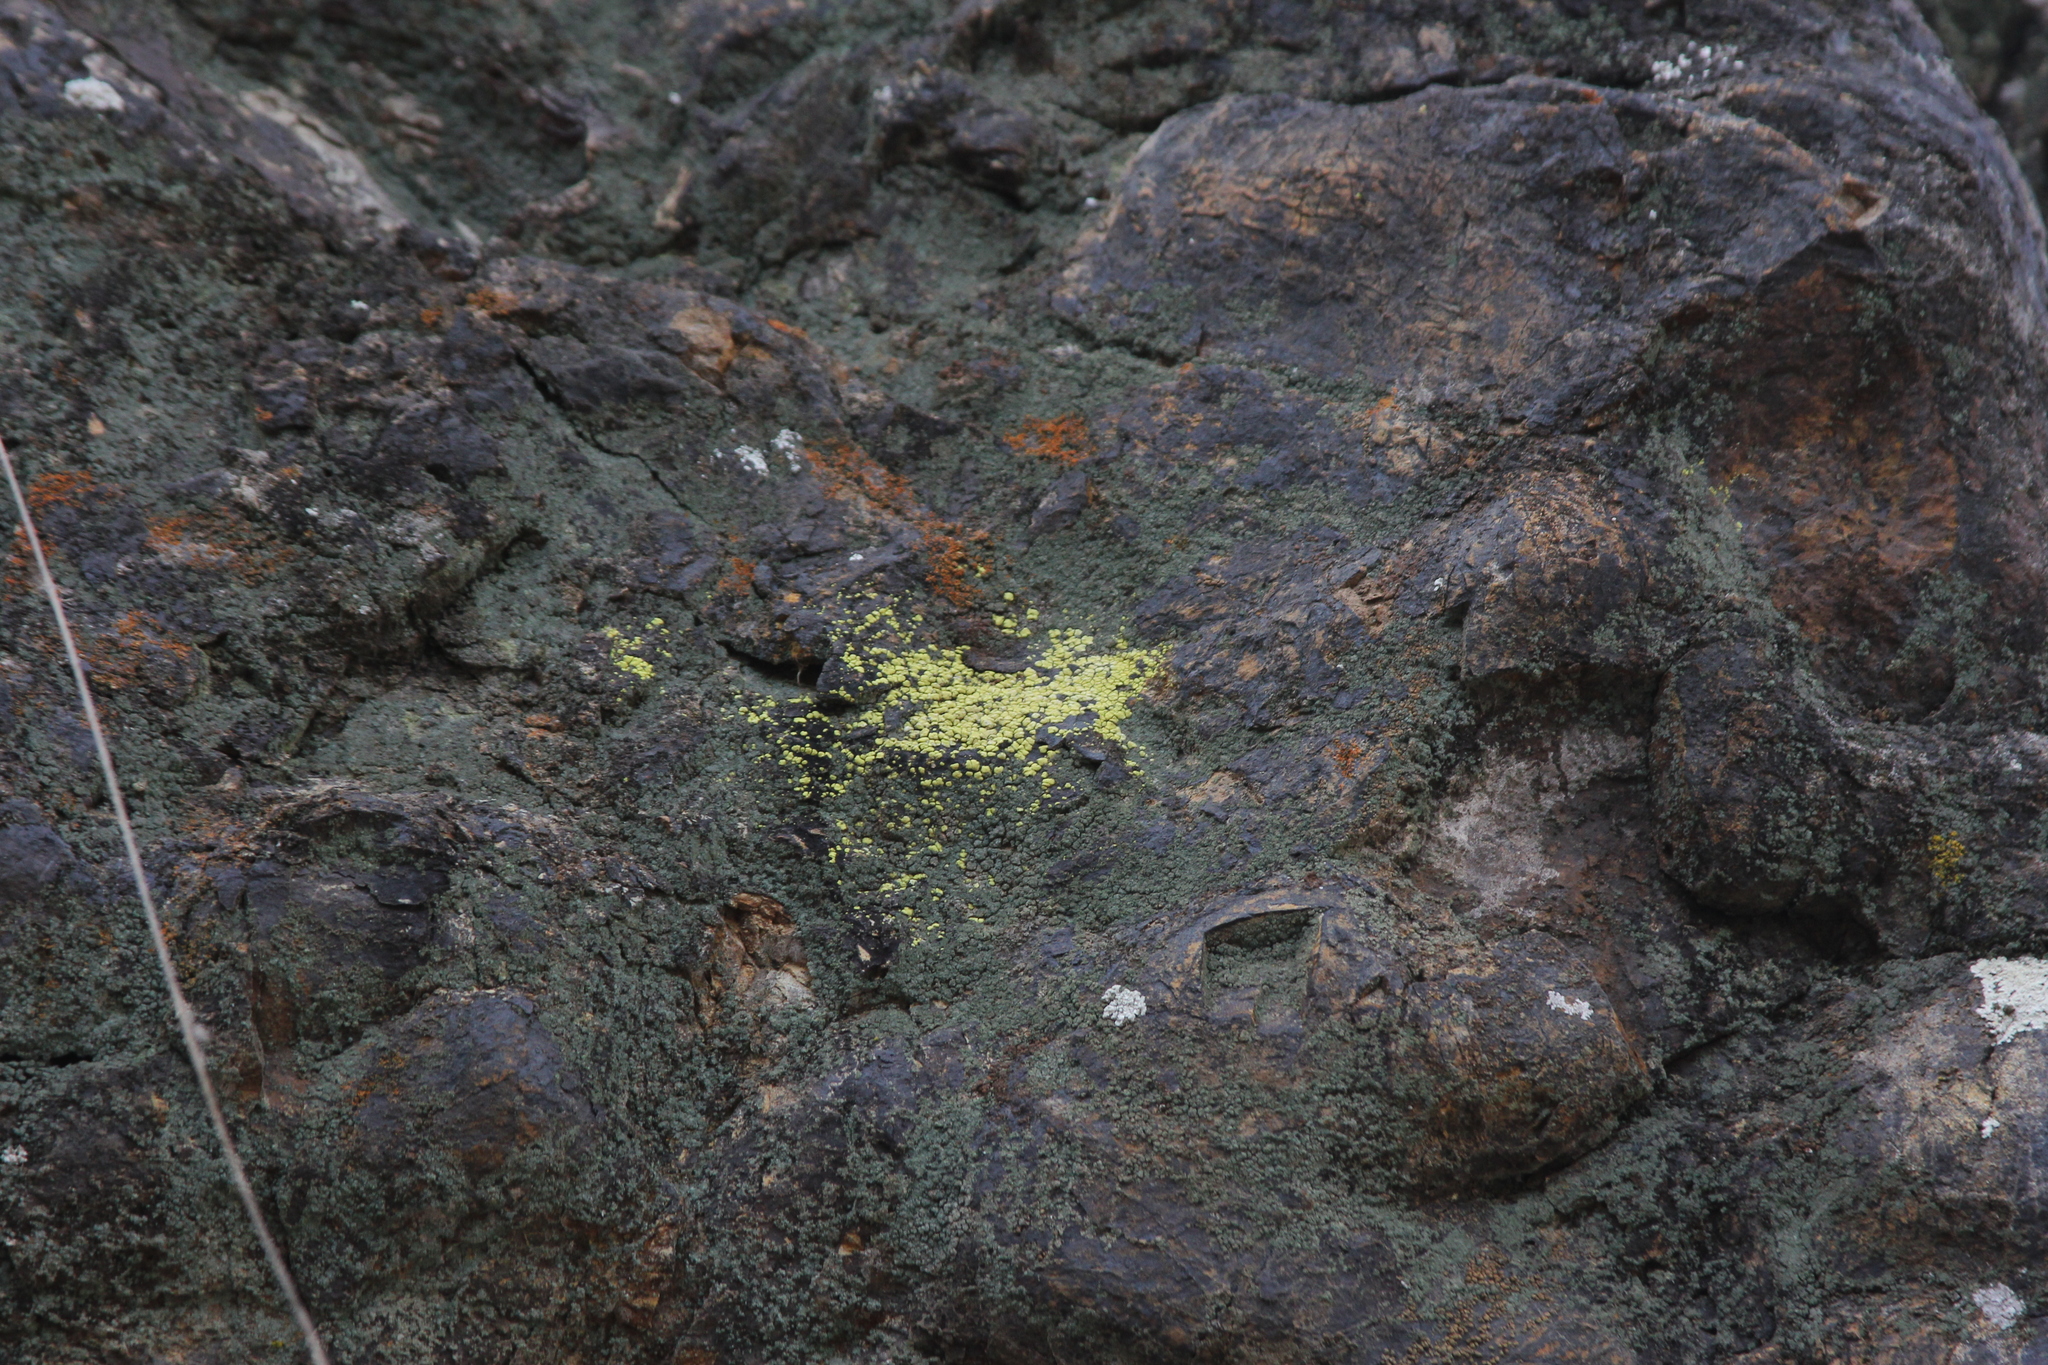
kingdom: Fungi
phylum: Ascomycota
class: Lecanoromycetes
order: Acarosporales
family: Acarosporaceae
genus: Acarospora
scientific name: Acarospora socialis
